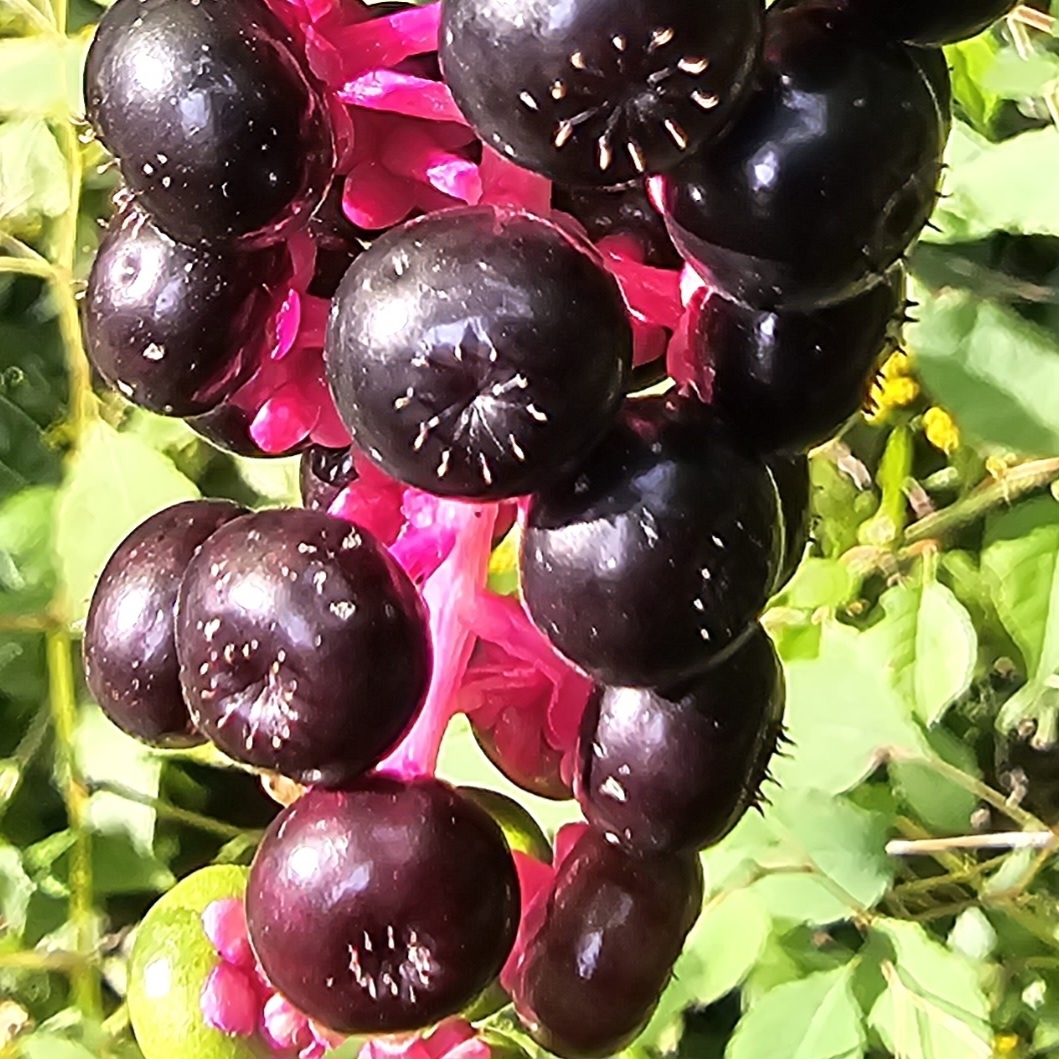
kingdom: Plantae
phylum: Tracheophyta
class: Magnoliopsida
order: Caryophyllales
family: Phytolaccaceae
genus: Phytolacca
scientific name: Phytolacca americana
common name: American pokeweed
